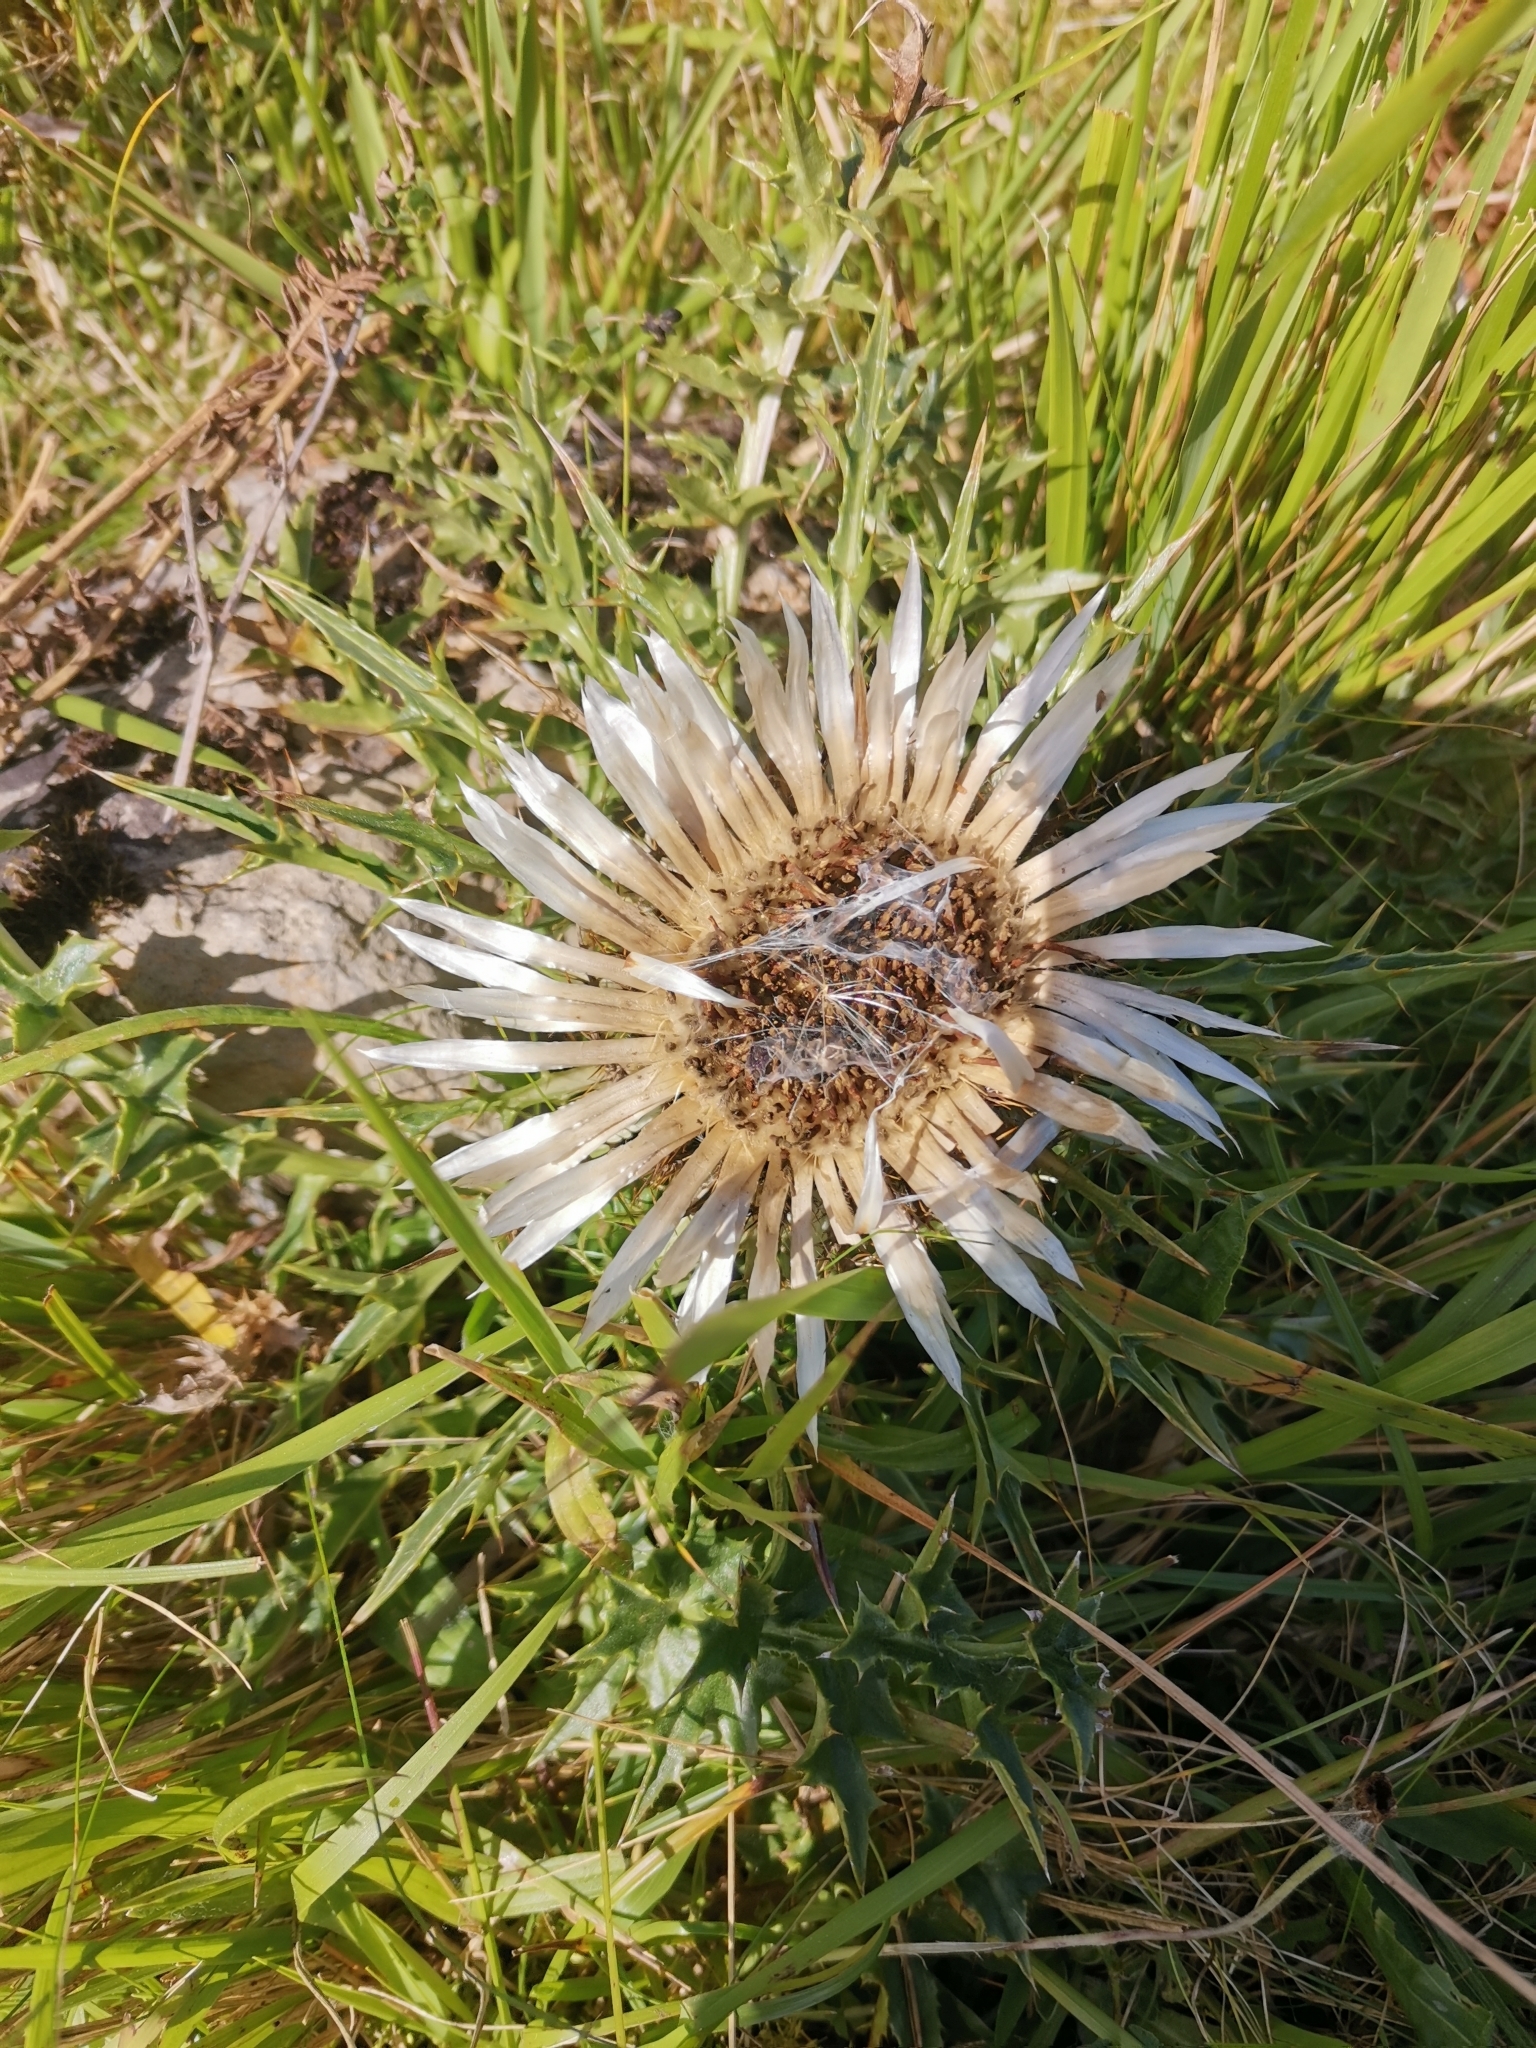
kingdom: Plantae
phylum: Tracheophyta
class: Magnoliopsida
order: Asterales
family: Asteraceae
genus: Carlina
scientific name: Carlina acaulis
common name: Stemless carline thistle
